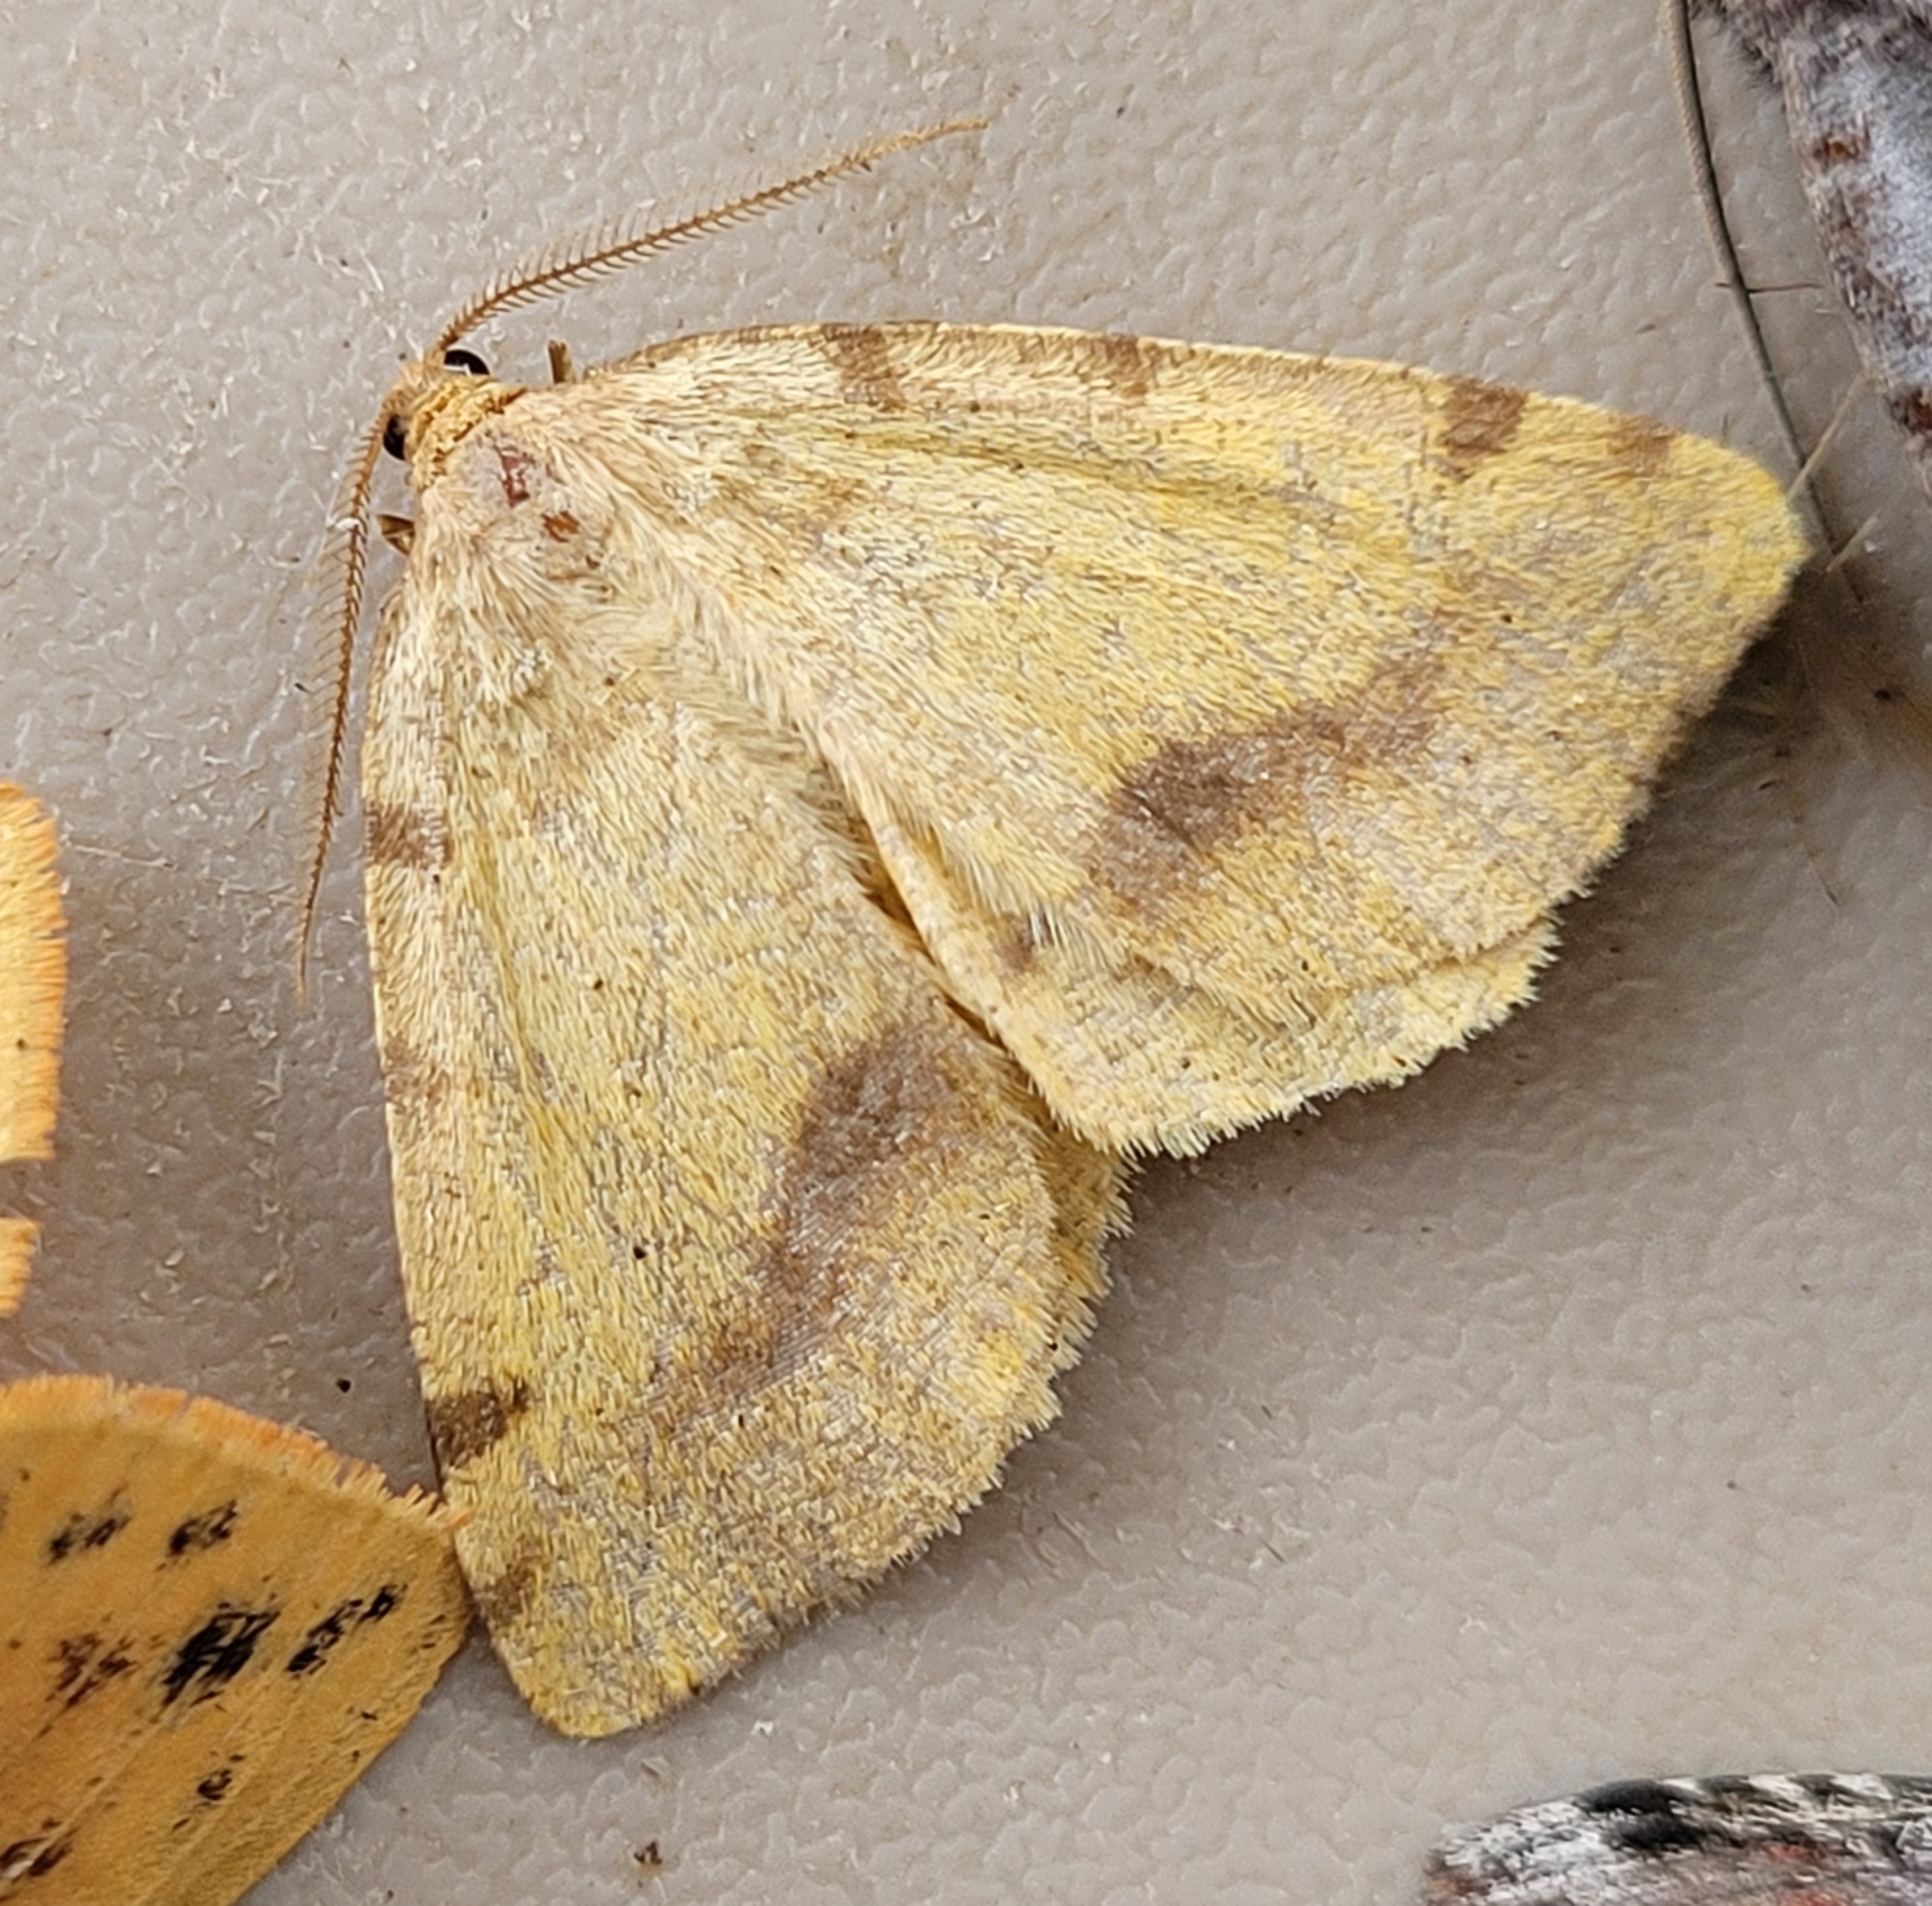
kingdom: Animalia
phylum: Arthropoda
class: Insecta
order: Lepidoptera
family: Geometridae
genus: Macaria
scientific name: Macaria occiduaria
